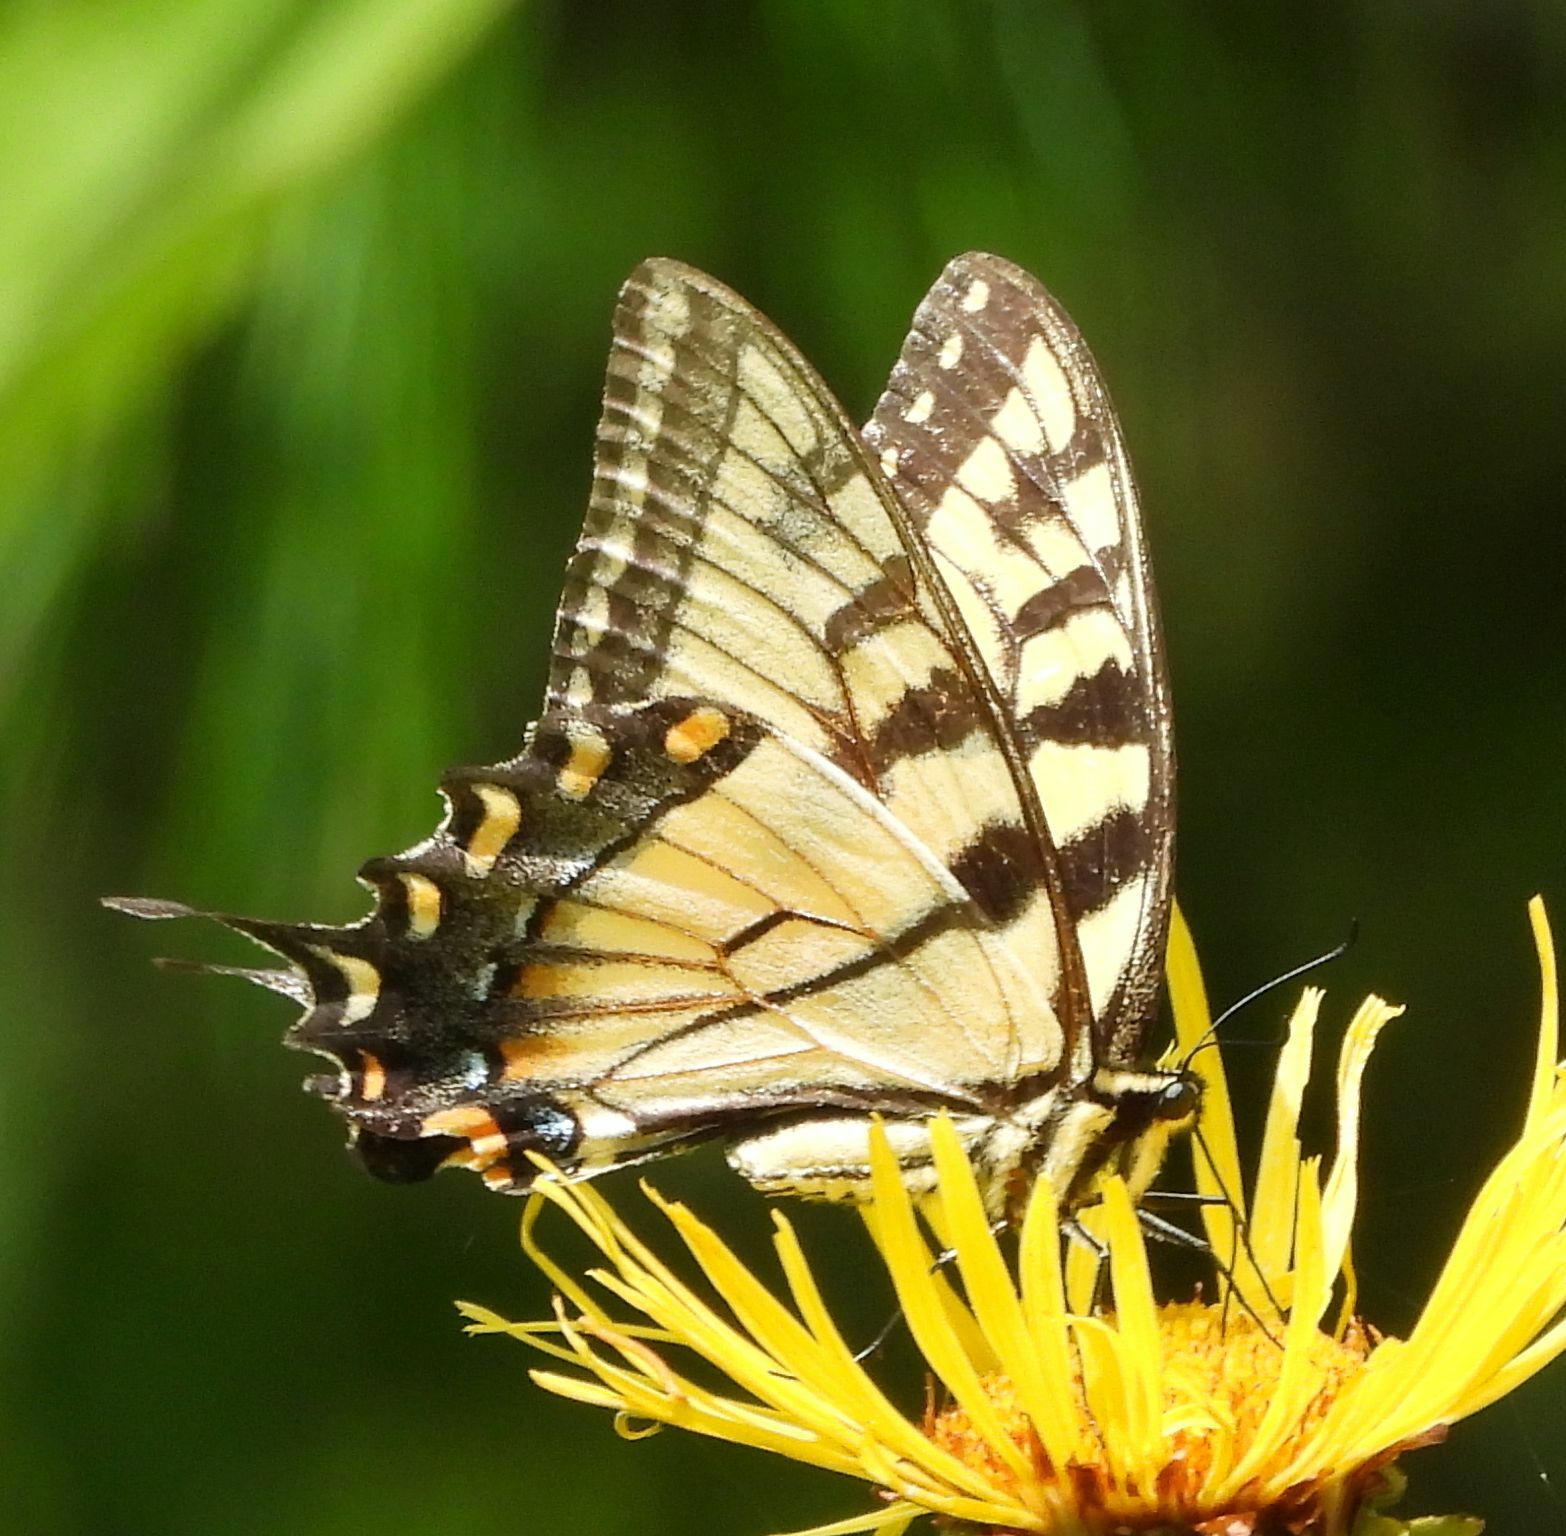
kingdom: Animalia
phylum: Arthropoda
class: Insecta
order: Lepidoptera
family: Papilionidae
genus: Papilio
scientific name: Papilio
